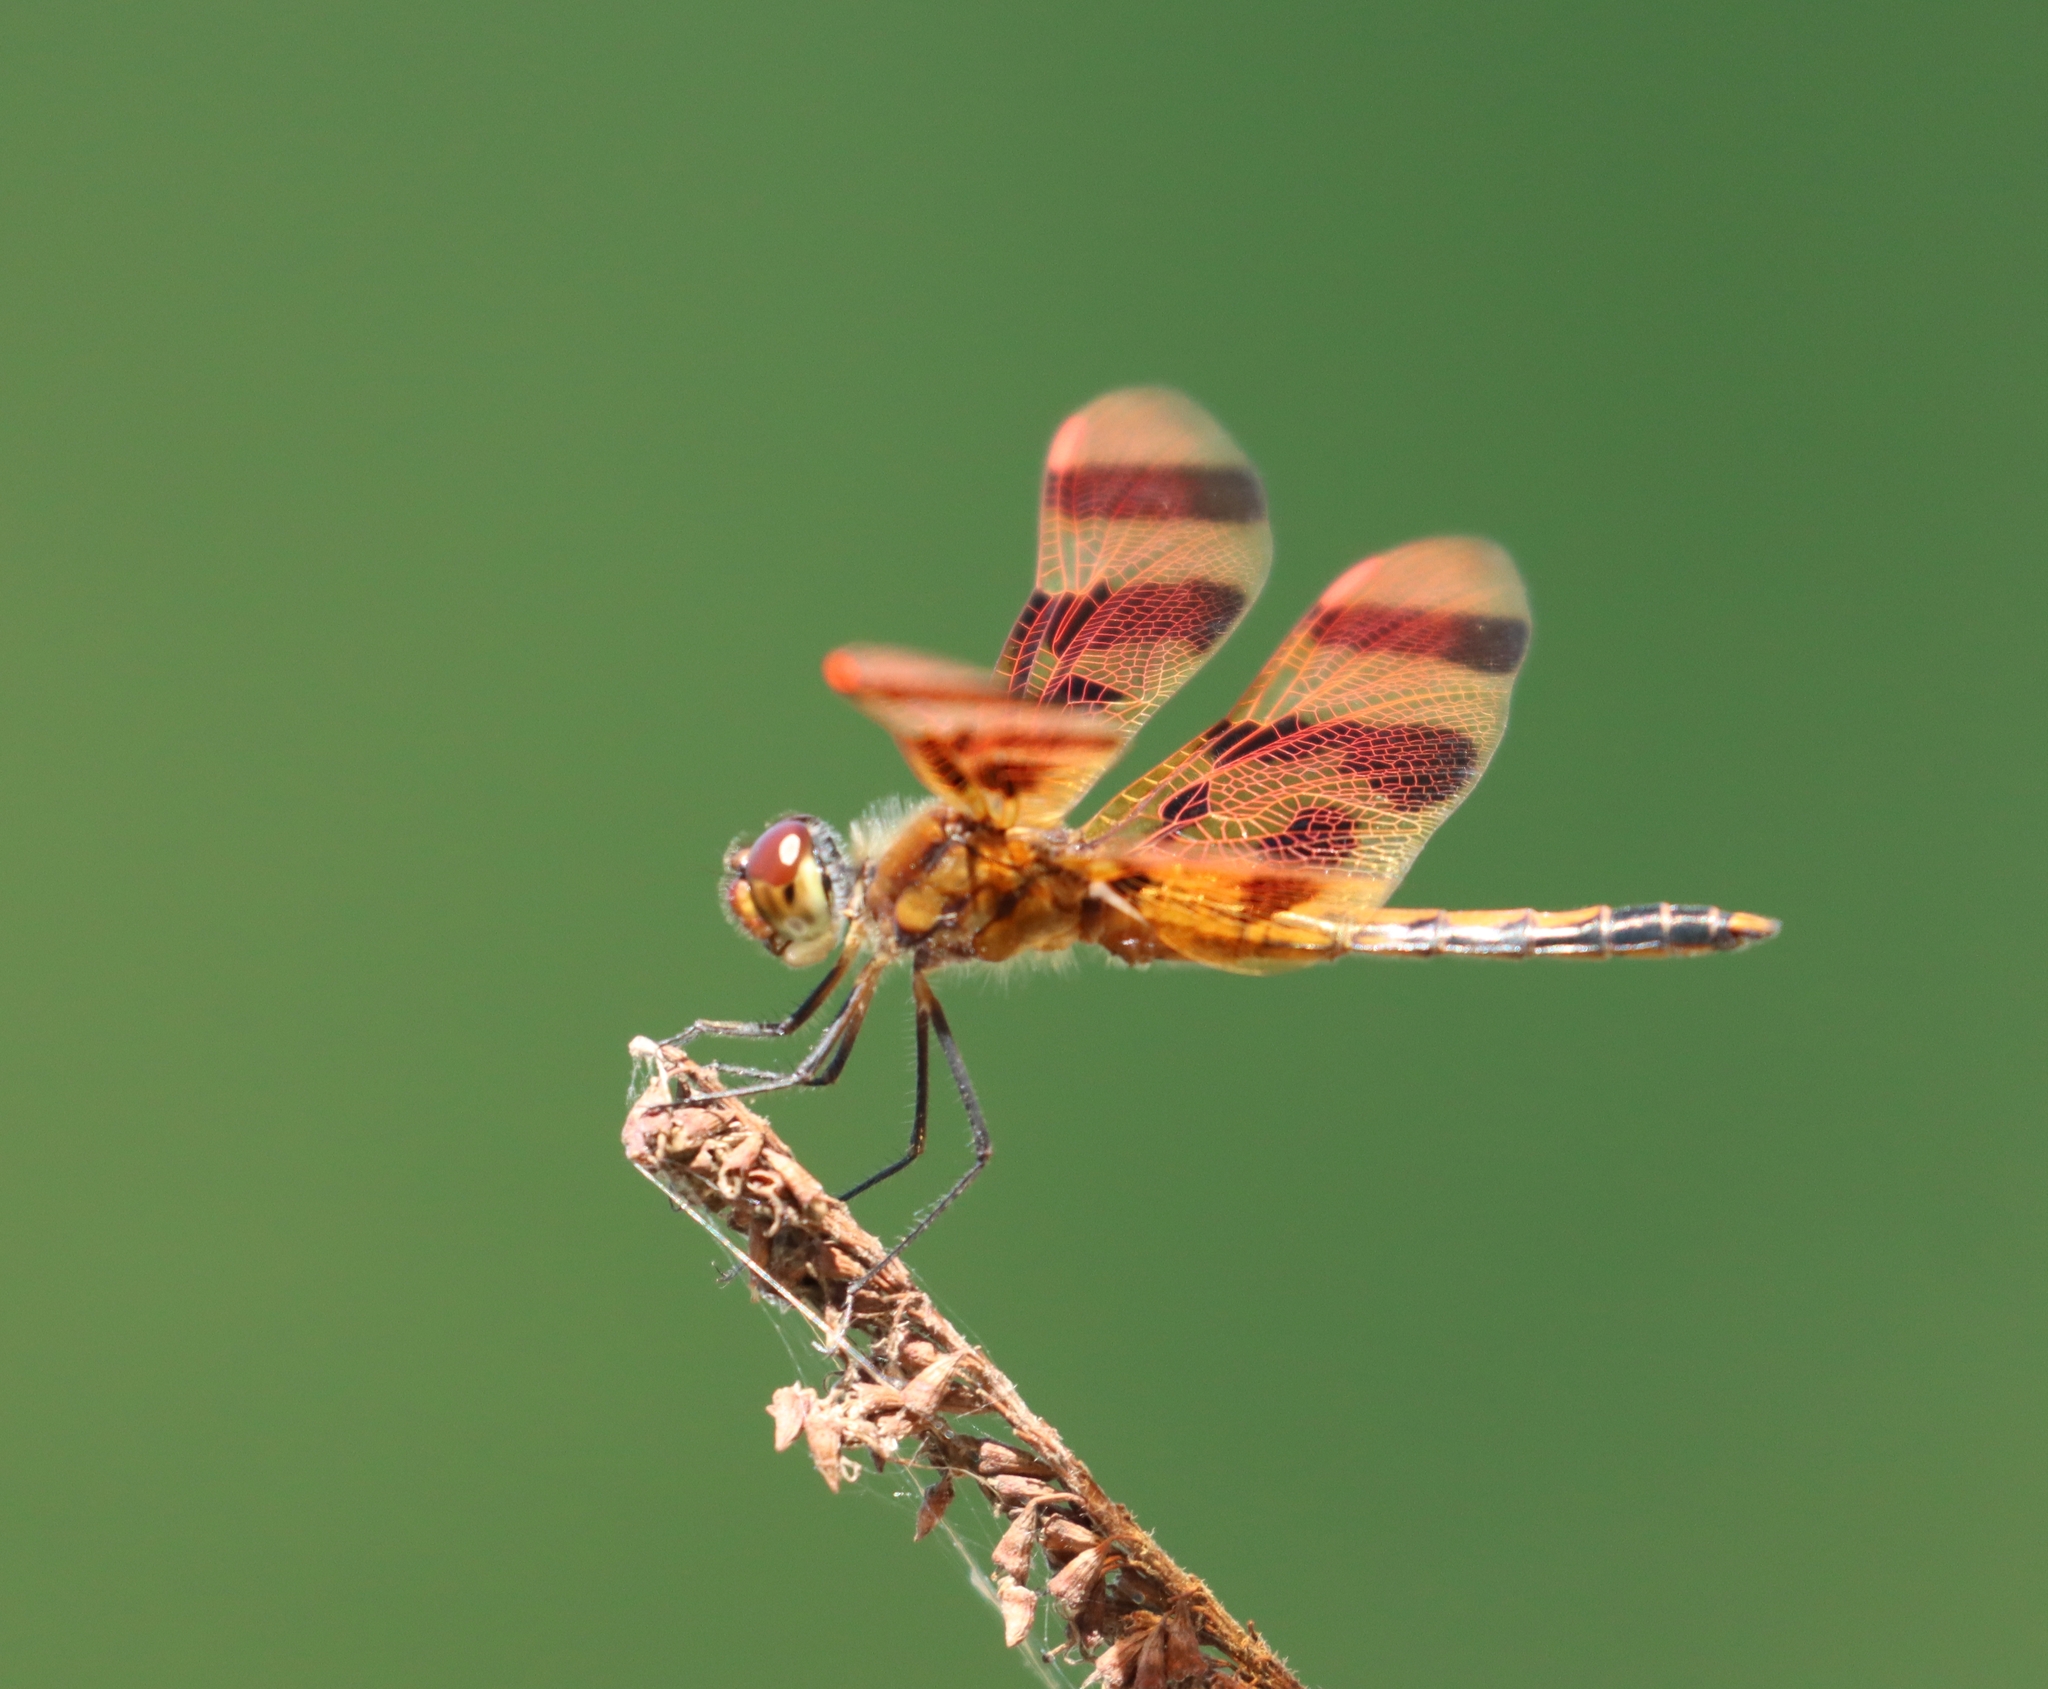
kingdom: Animalia
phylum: Arthropoda
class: Insecta
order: Odonata
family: Libellulidae
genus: Celithemis
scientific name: Celithemis eponina
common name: Halloween pennant
